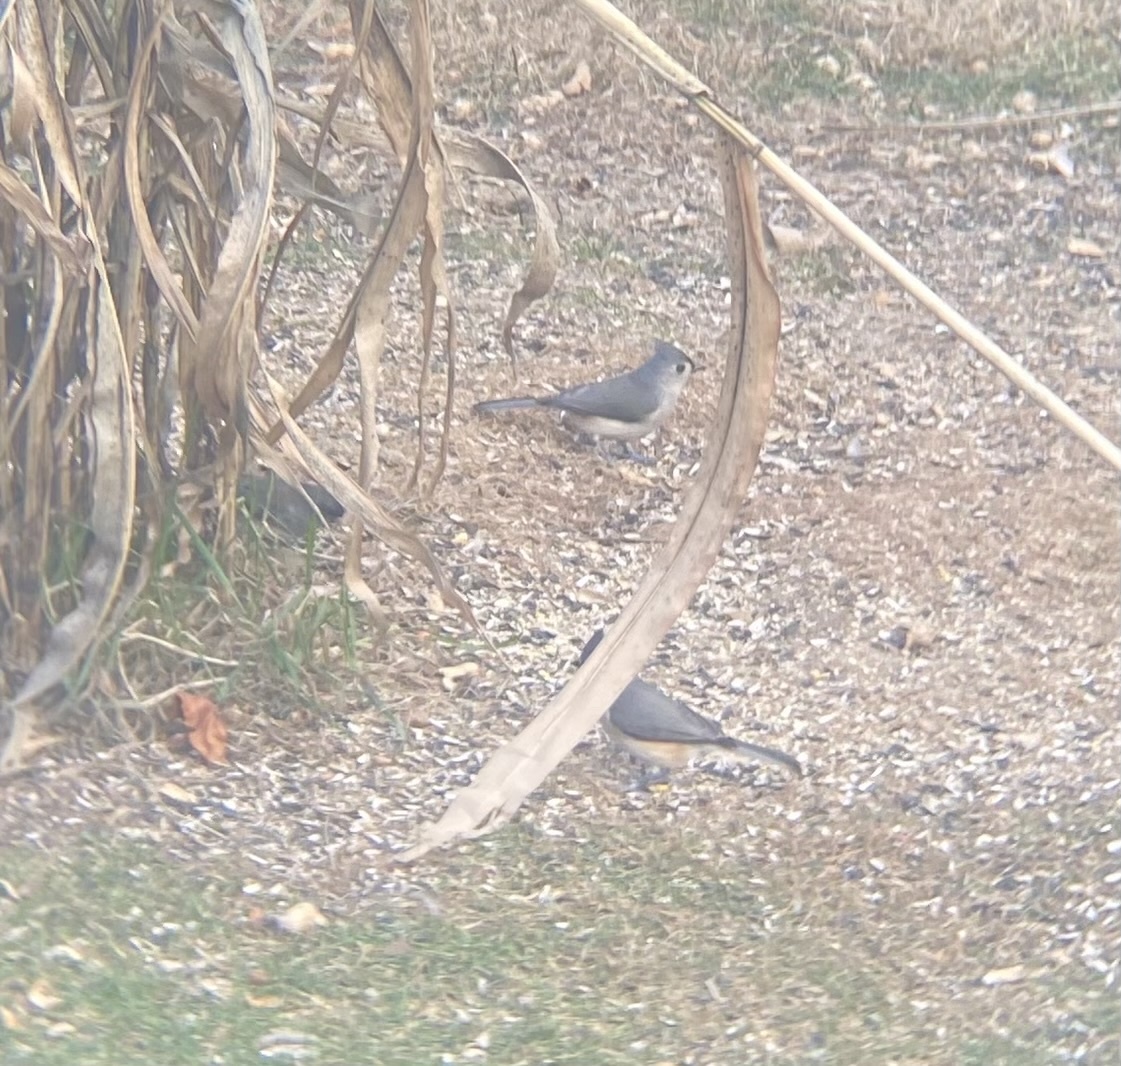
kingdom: Animalia
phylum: Chordata
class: Aves
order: Passeriformes
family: Paridae
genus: Baeolophus
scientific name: Baeolophus bicolor
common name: Tufted titmouse
